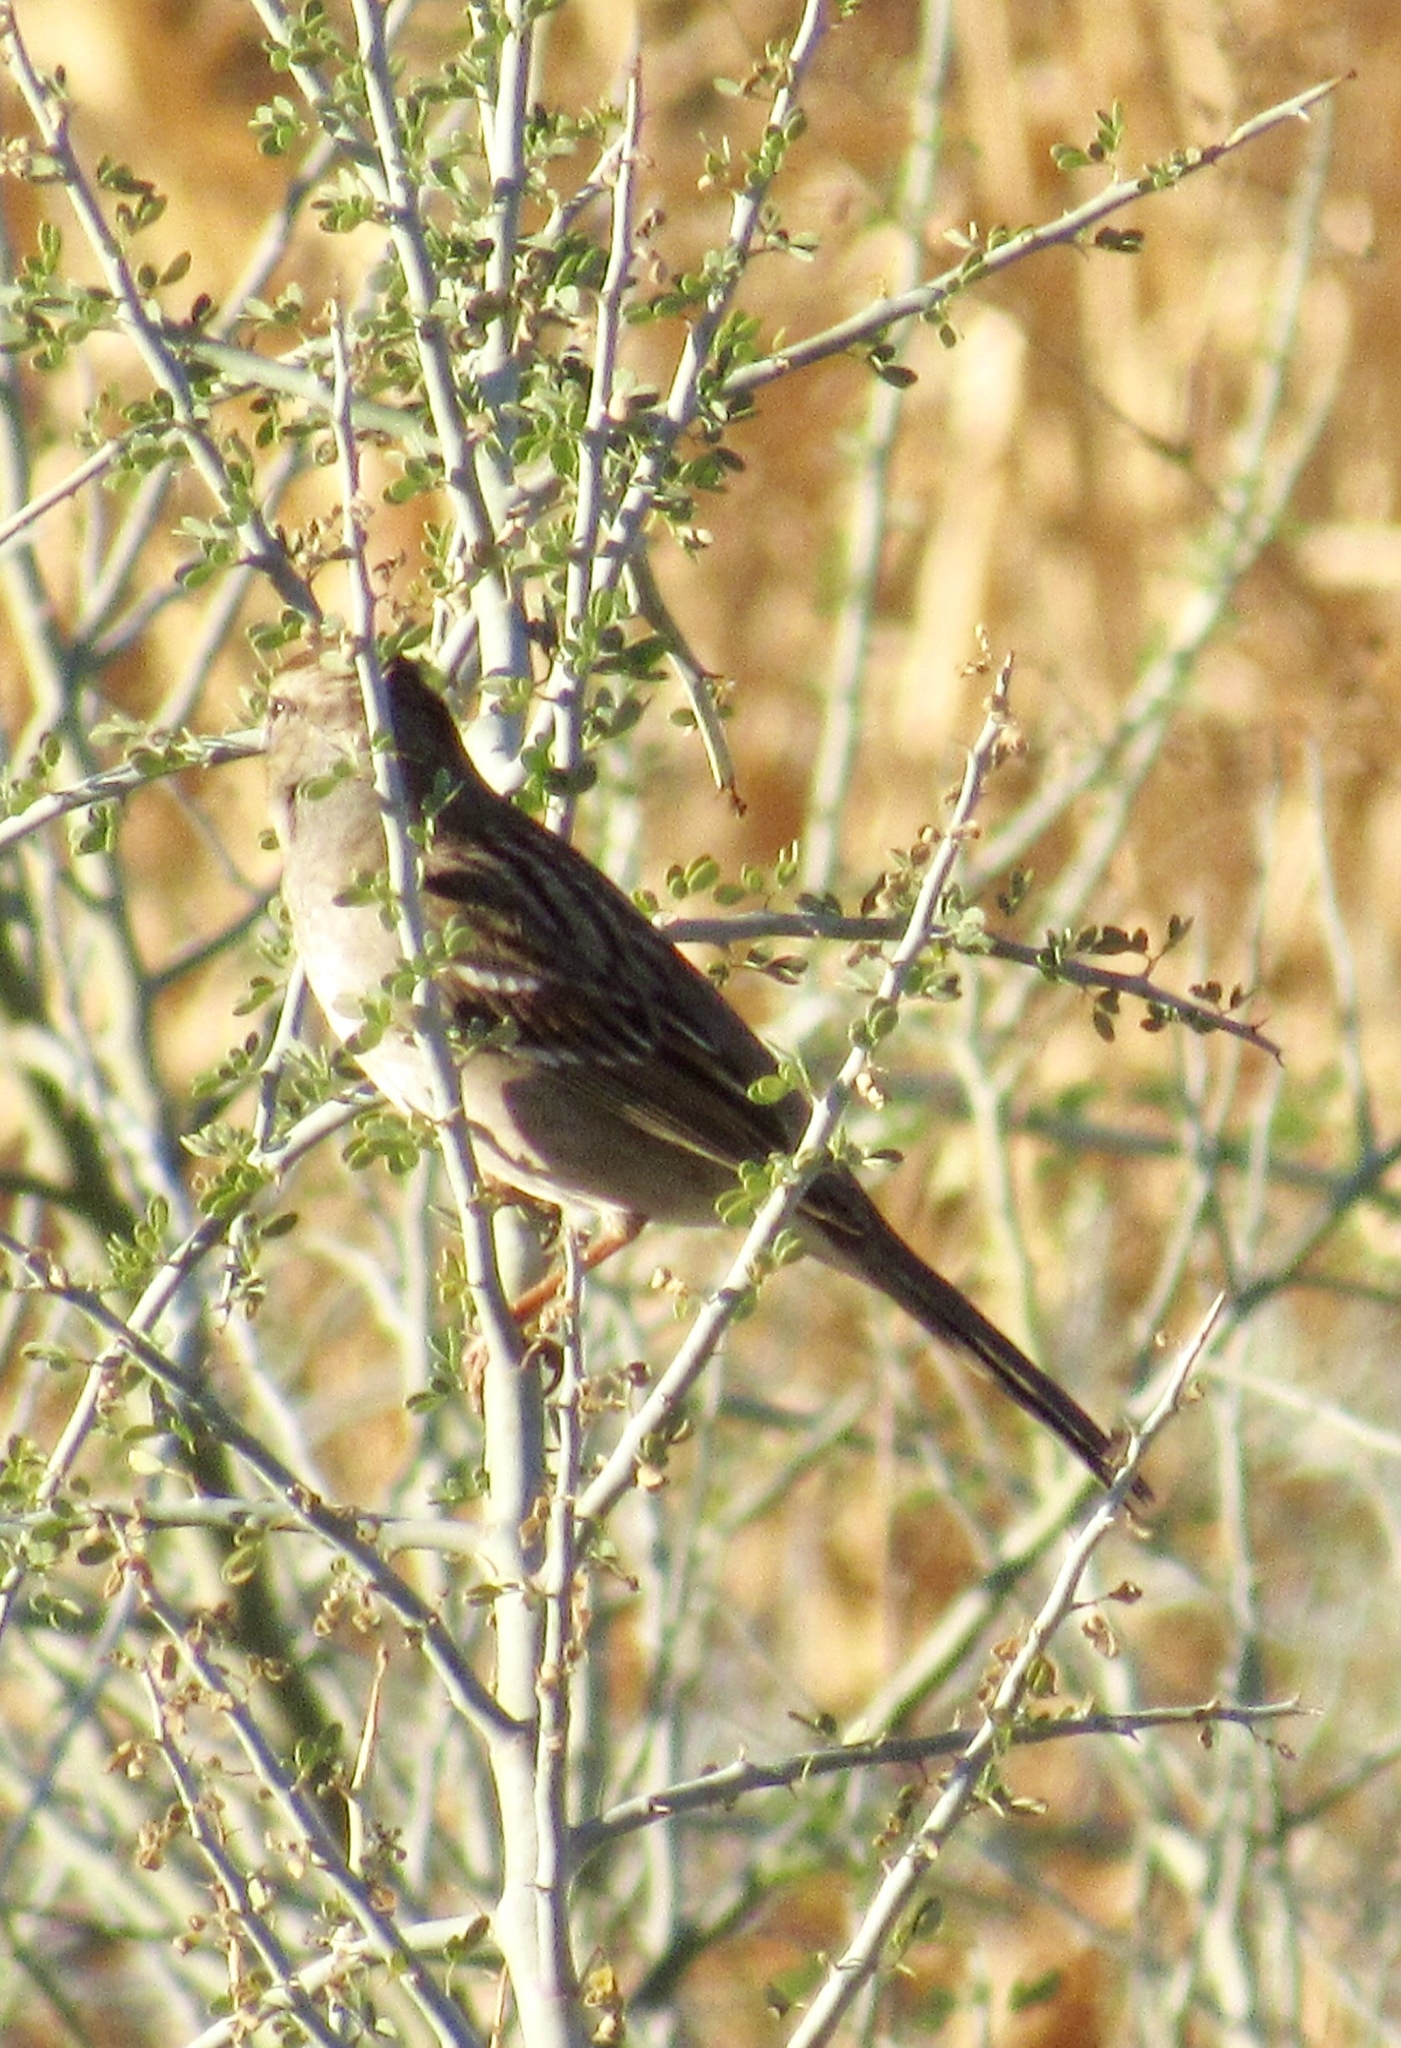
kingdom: Animalia
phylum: Chordata
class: Aves
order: Passeriformes
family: Passerellidae
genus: Zonotrichia
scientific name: Zonotrichia leucophrys
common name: White-crowned sparrow
